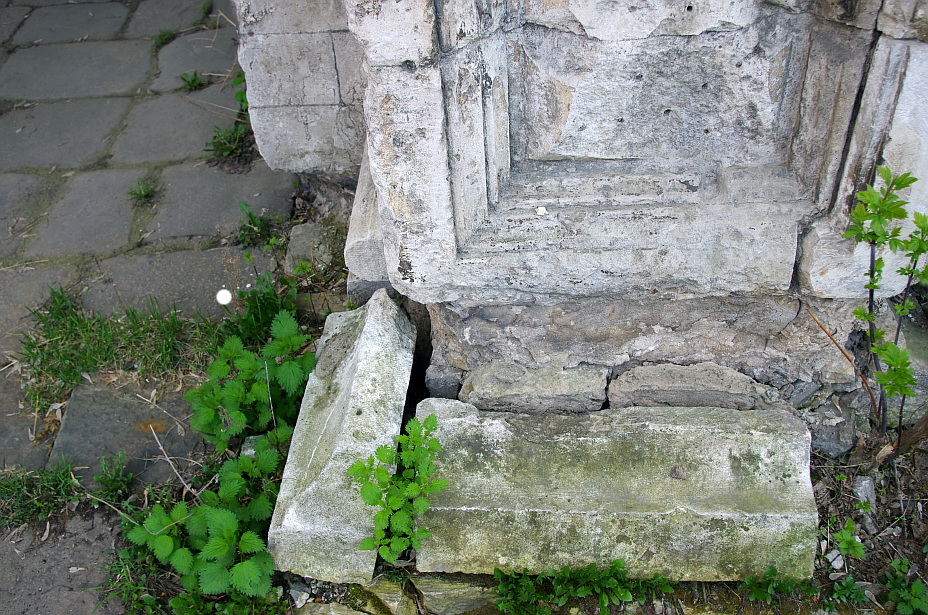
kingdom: Plantae
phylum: Tracheophyta
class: Magnoliopsida
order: Rosales
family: Urticaceae
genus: Urtica
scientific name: Urtica dioica
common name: Common nettle
